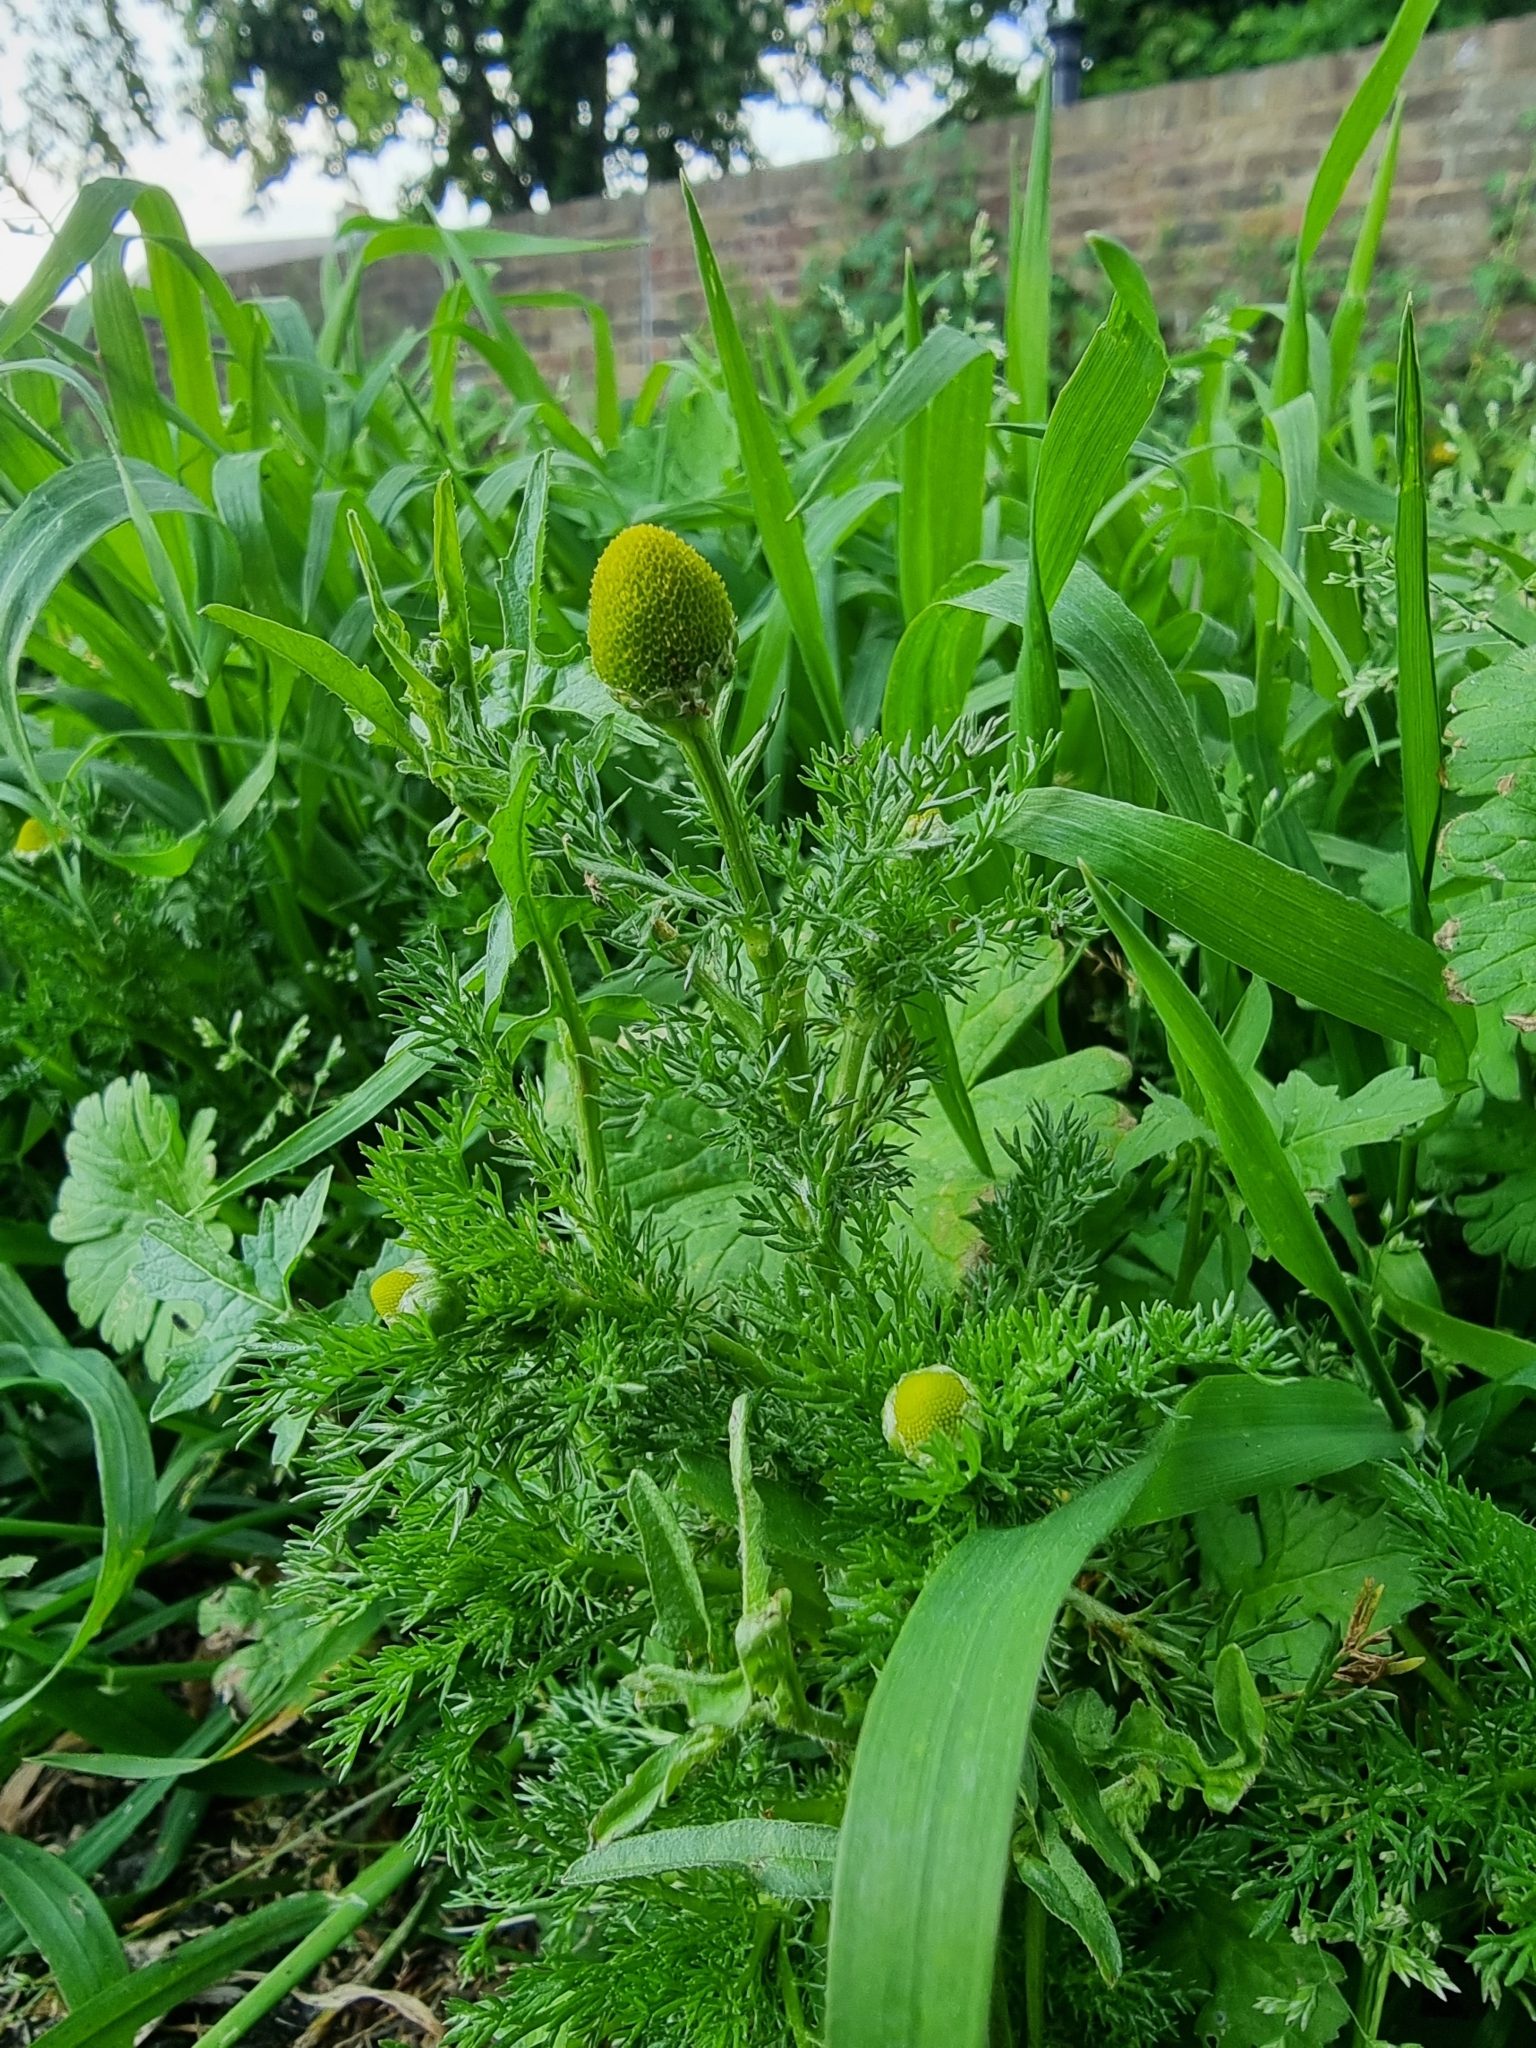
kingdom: Plantae
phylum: Tracheophyta
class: Magnoliopsida
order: Asterales
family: Asteraceae
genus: Matricaria
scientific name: Matricaria discoidea
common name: Disc mayweed
